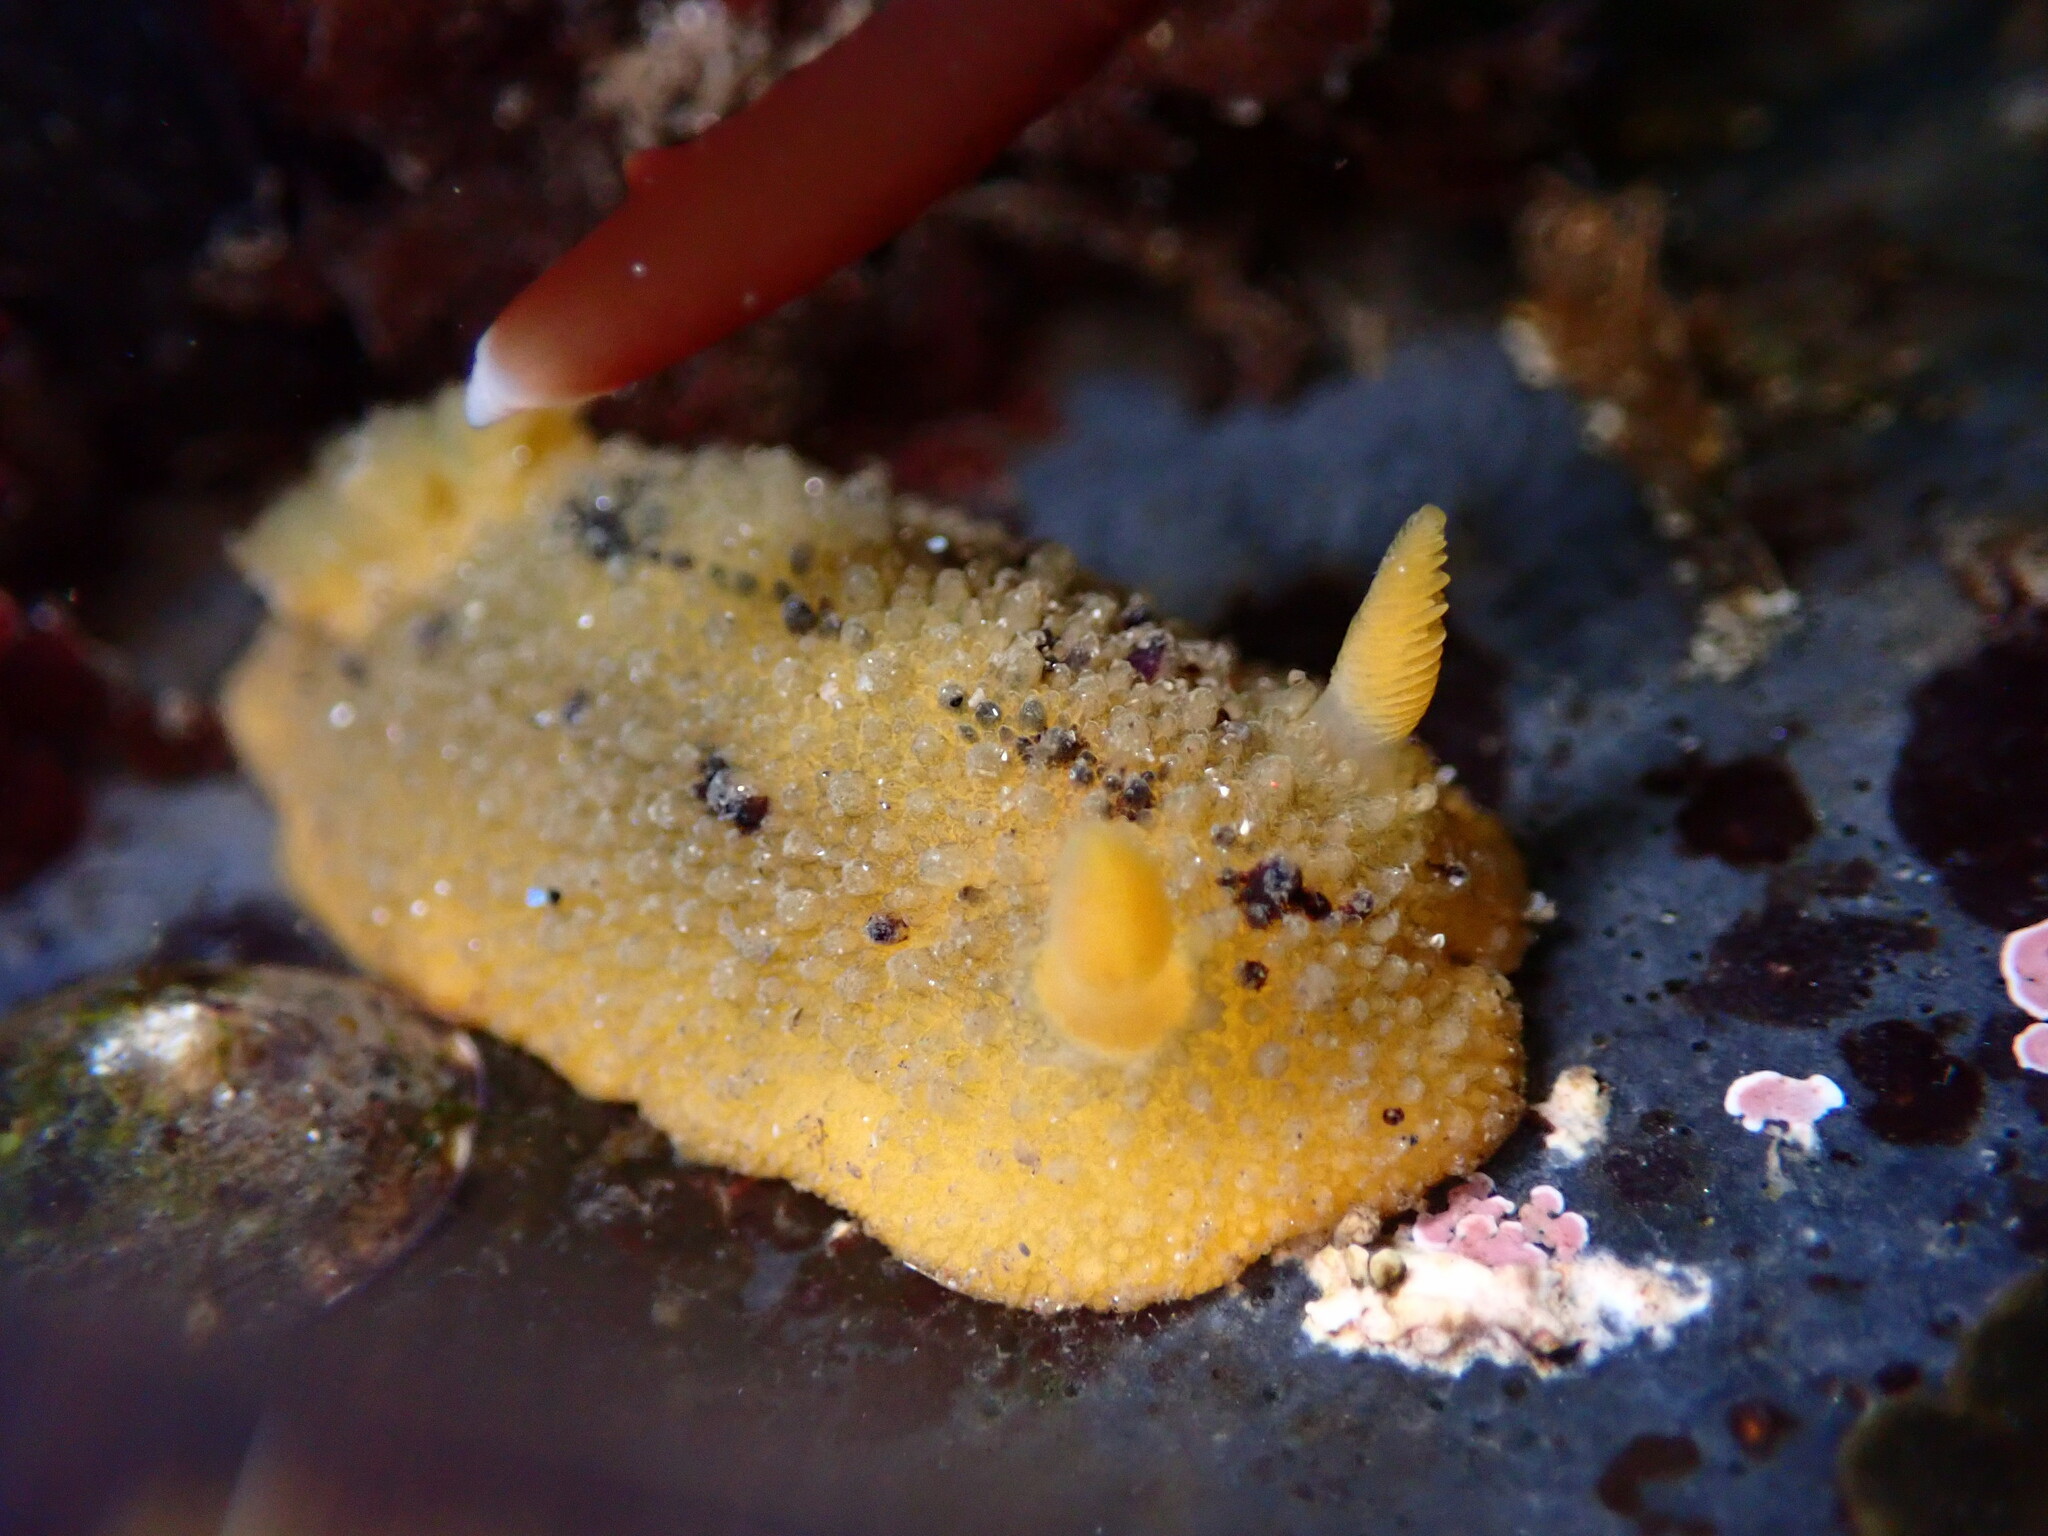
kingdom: Animalia
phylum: Mollusca
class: Gastropoda
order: Nudibranchia
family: Dorididae
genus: Doris
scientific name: Doris montereyensis
